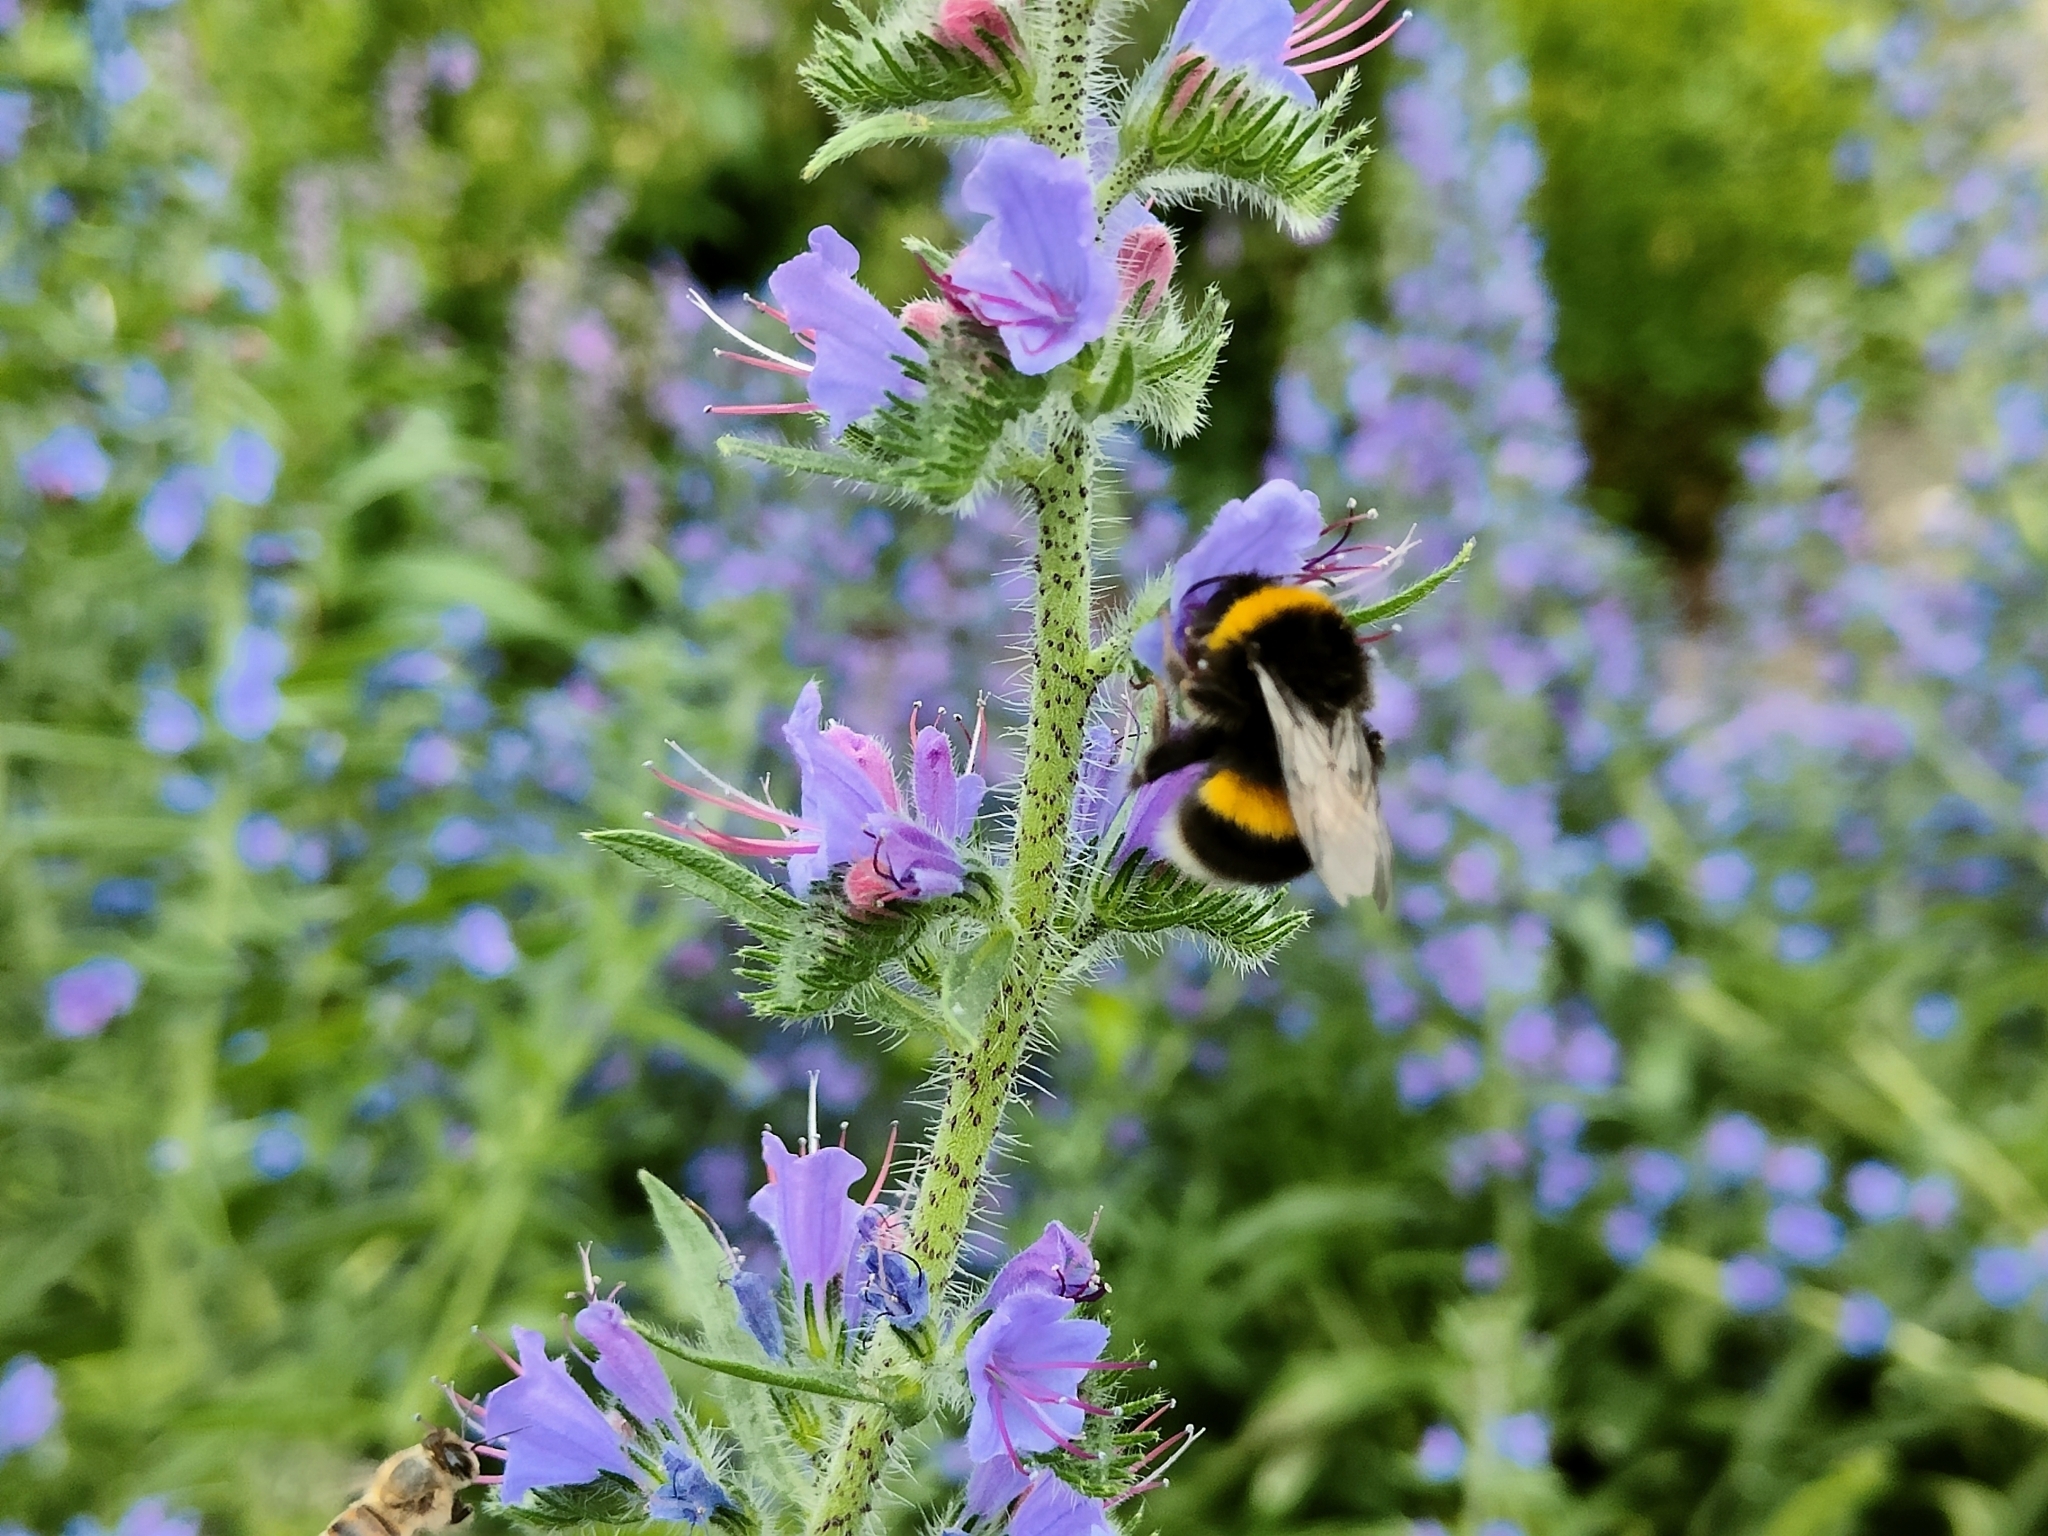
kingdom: Animalia
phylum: Arthropoda
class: Insecta
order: Hymenoptera
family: Apidae
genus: Bombus
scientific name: Bombus terrestris
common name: Buff-tailed bumblebee
